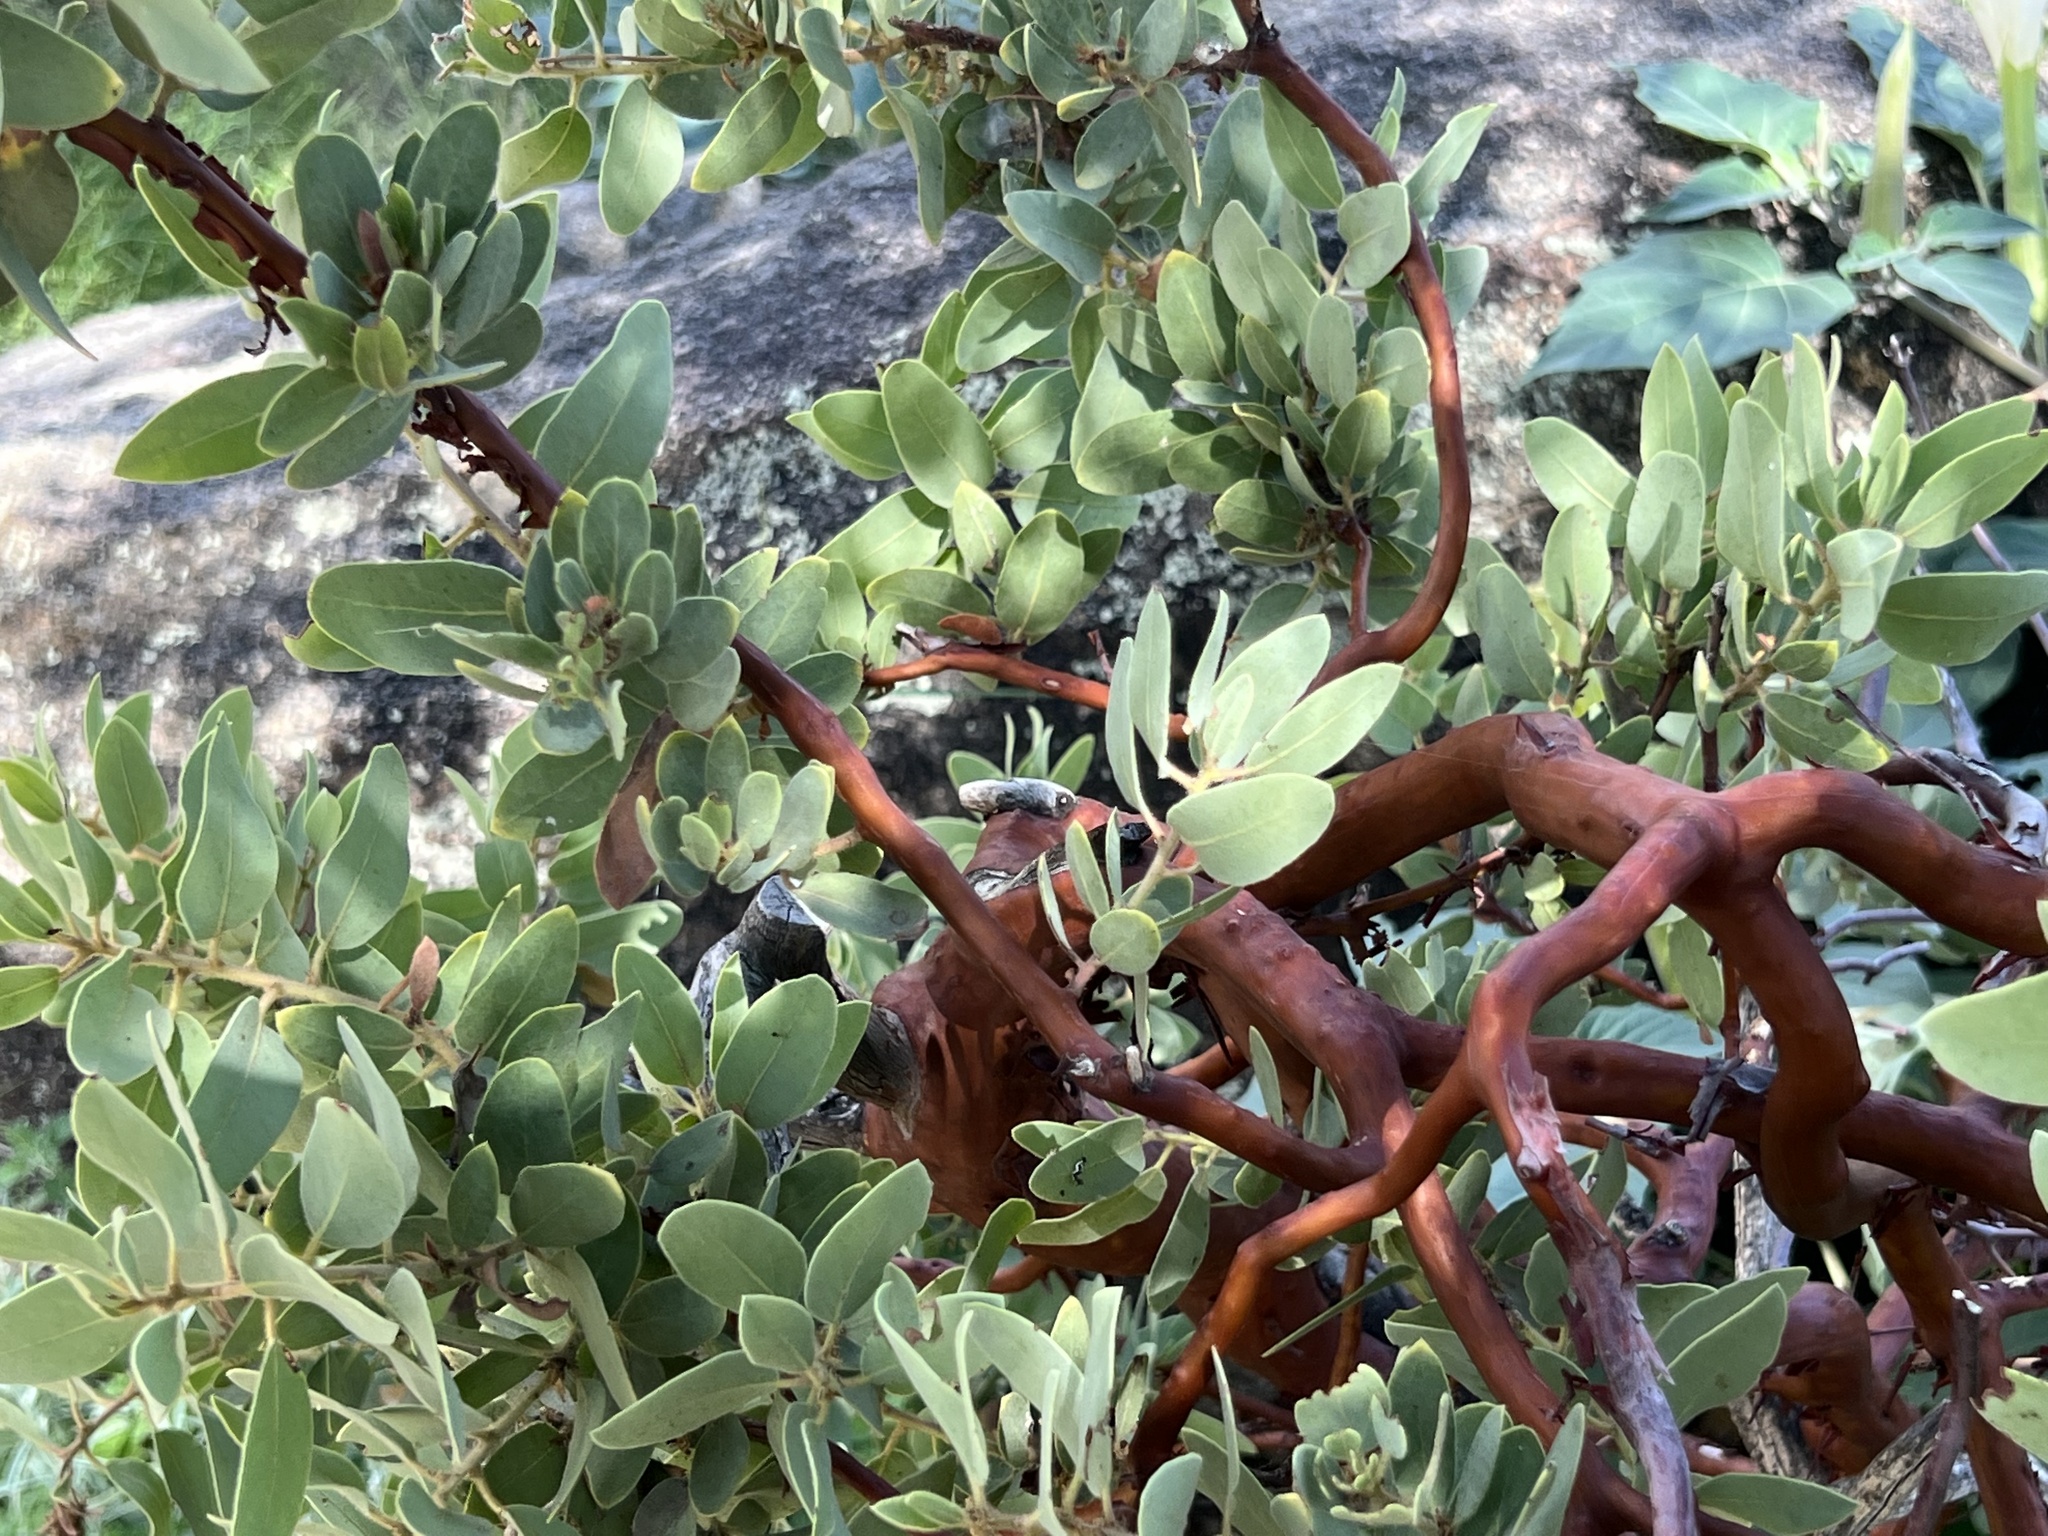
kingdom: Plantae
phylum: Tracheophyta
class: Magnoliopsida
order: Ericales
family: Ericaceae
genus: Arctostaphylos
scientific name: Arctostaphylos pringlei
